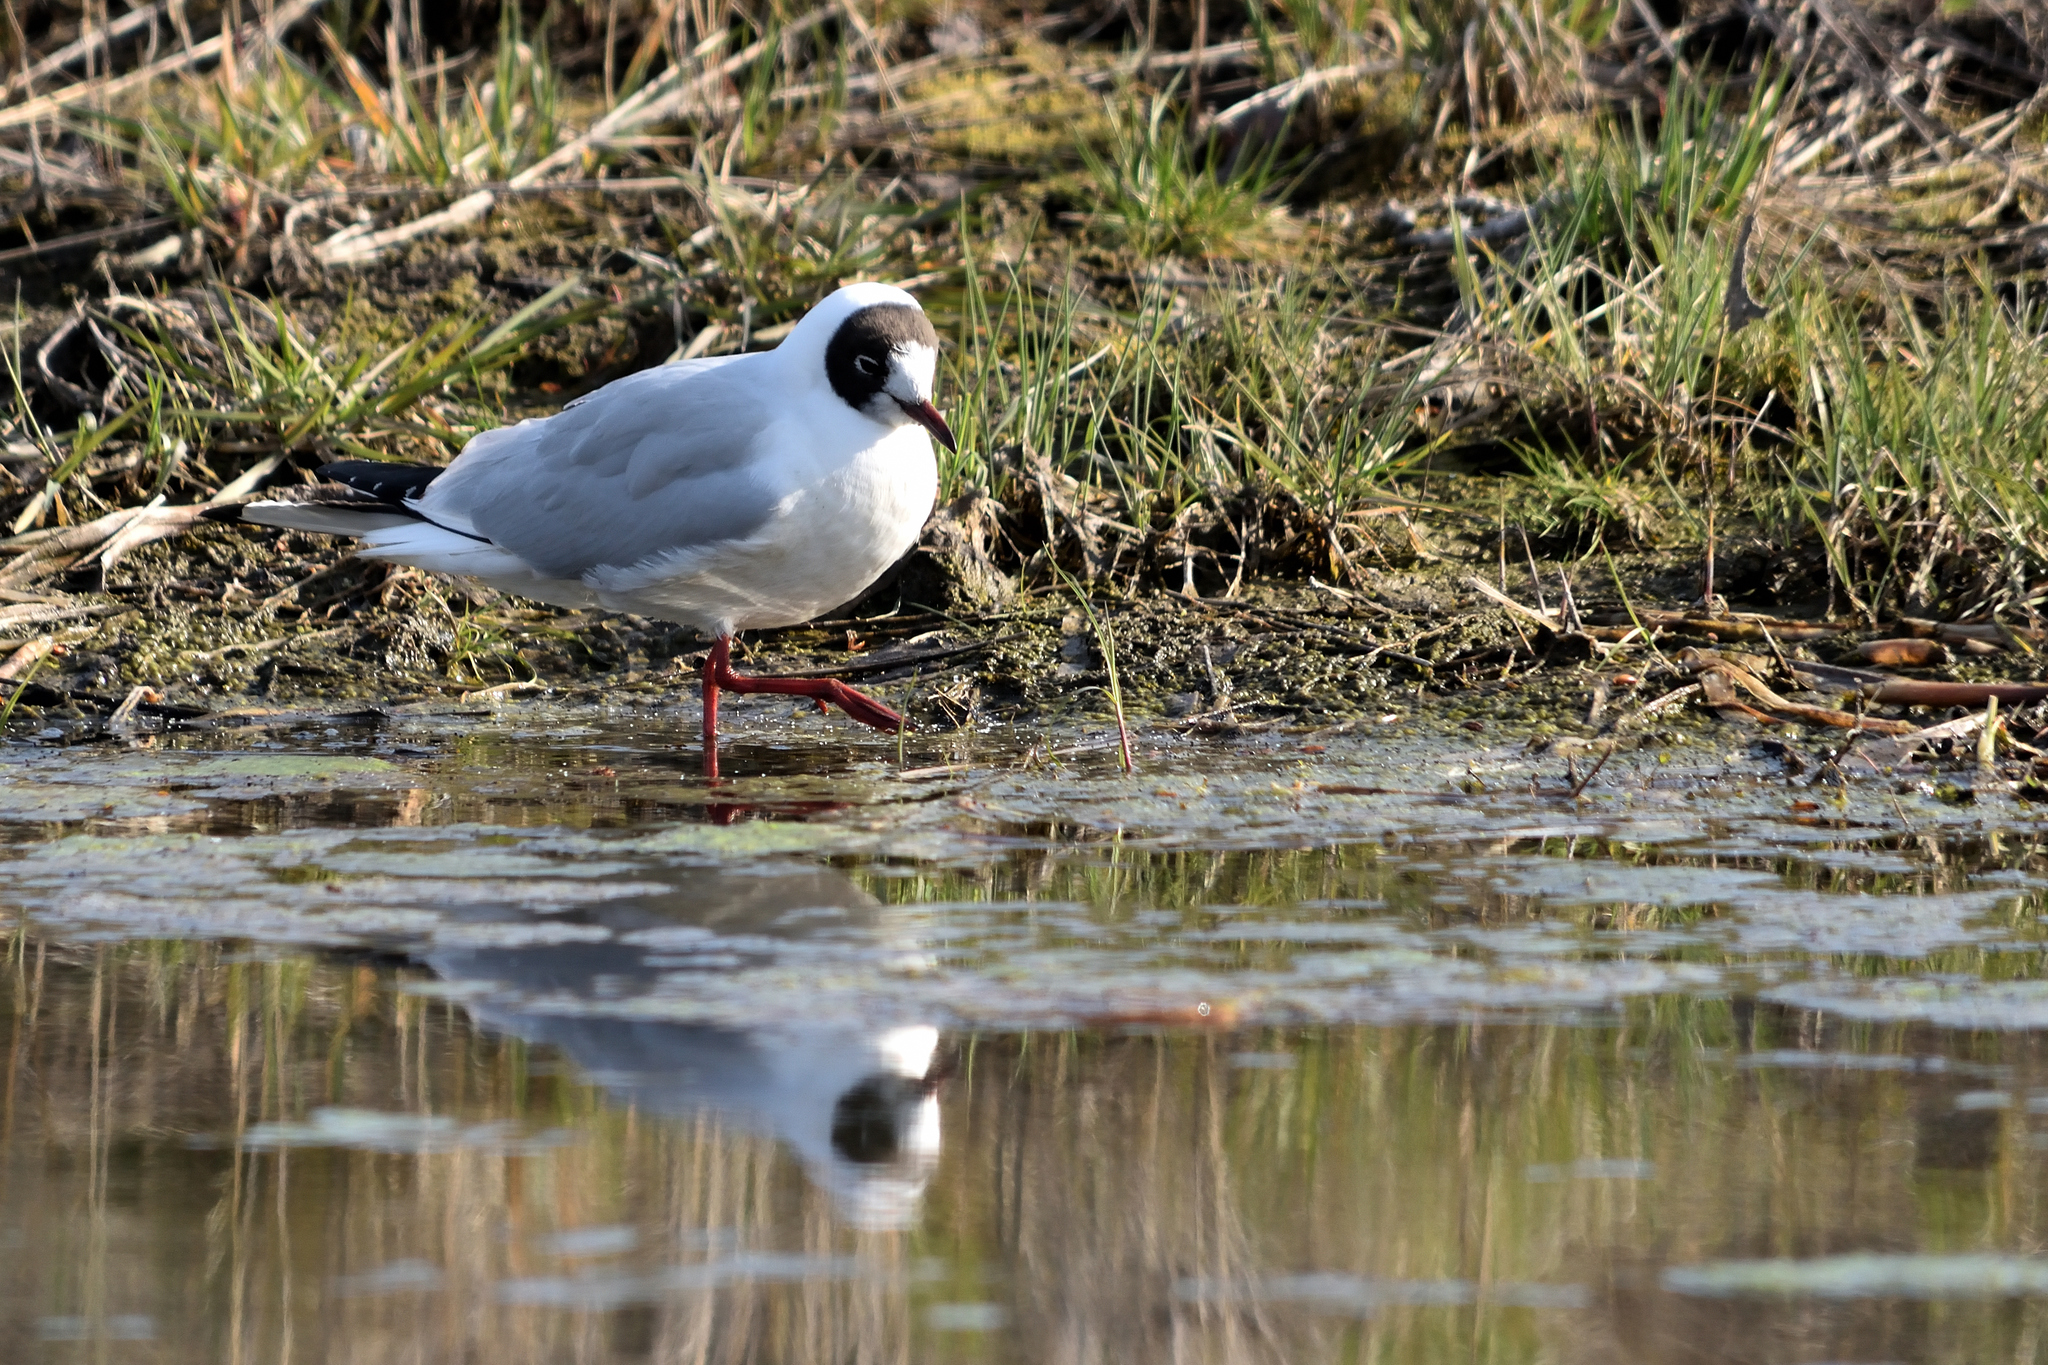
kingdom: Animalia
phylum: Chordata
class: Aves
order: Charadriiformes
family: Laridae
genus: Chroicocephalus
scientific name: Chroicocephalus ridibundus
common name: Black-headed gull
